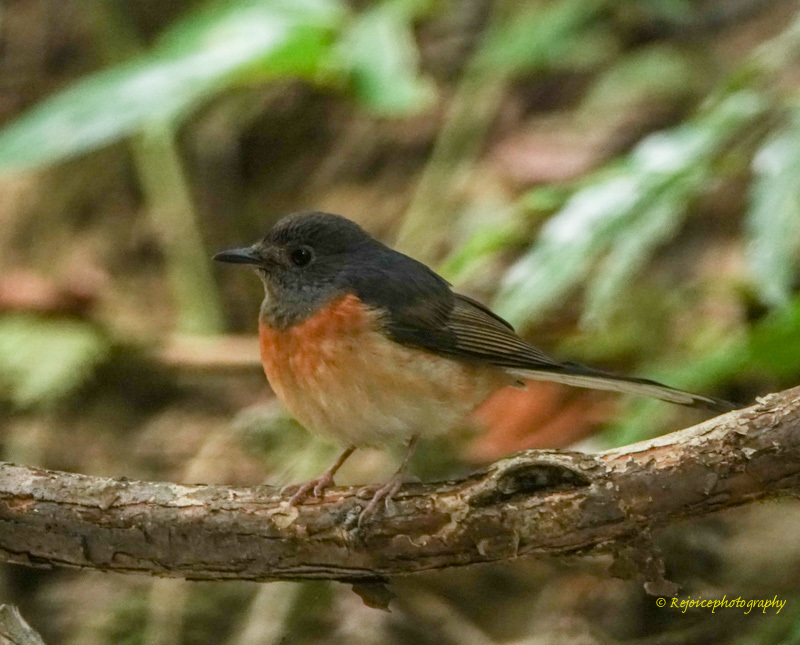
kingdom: Animalia
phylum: Chordata
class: Aves
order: Passeriformes
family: Muscicapidae
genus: Copsychus
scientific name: Copsychus malabaricus
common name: White-rumped shama
